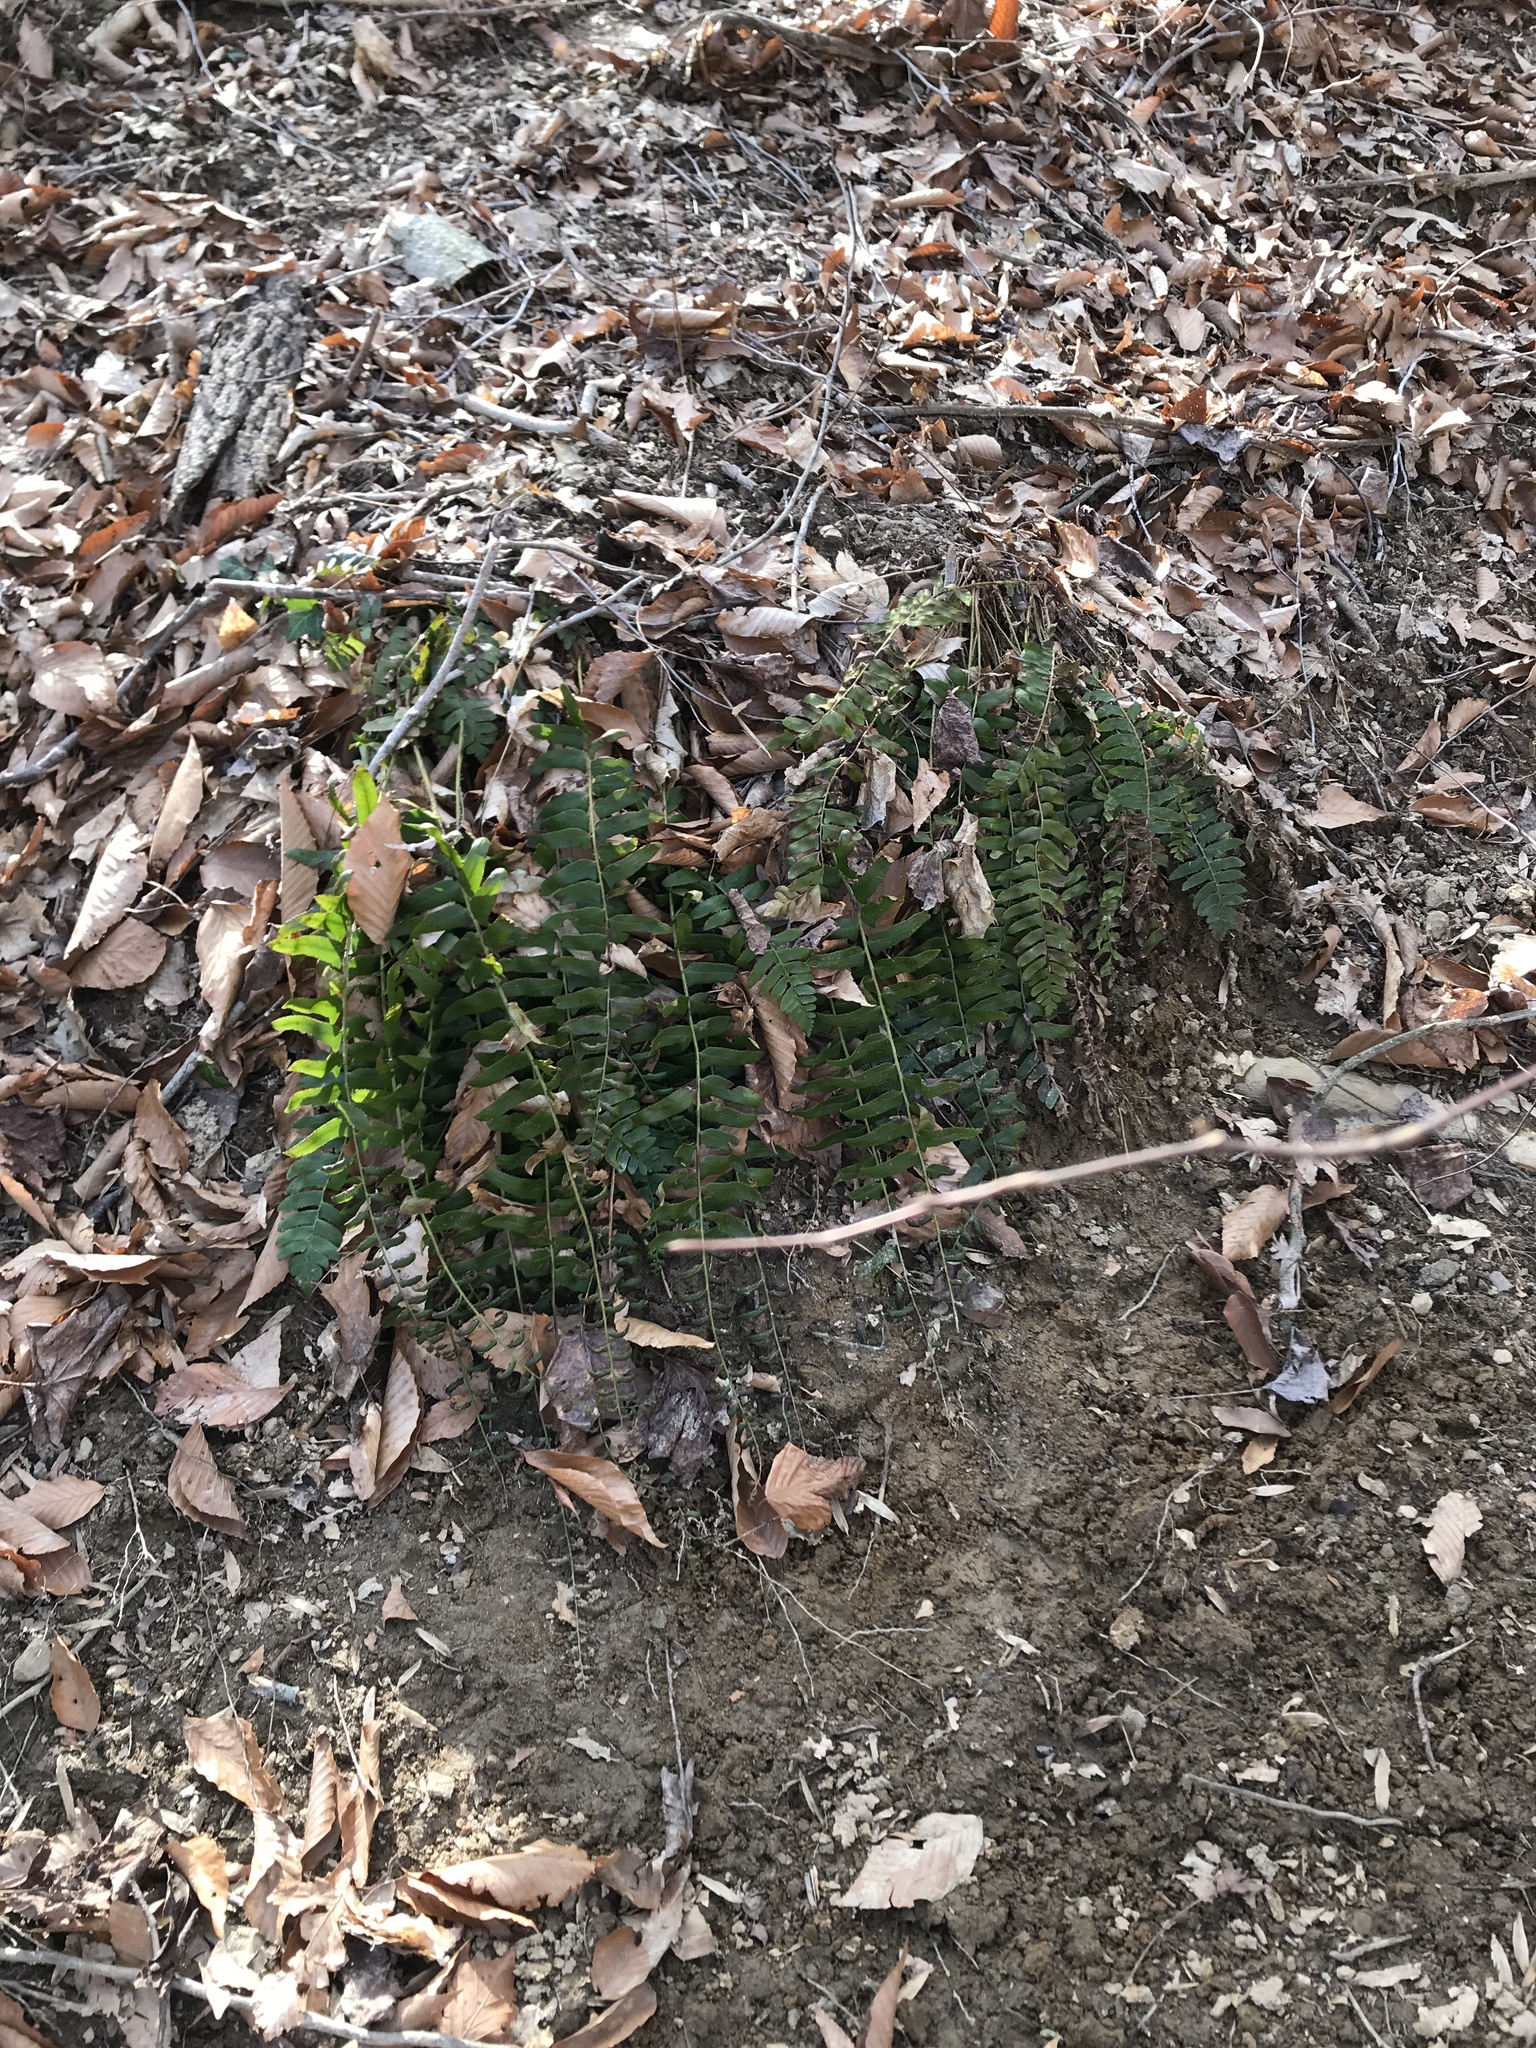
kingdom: Plantae
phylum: Tracheophyta
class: Polypodiopsida
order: Polypodiales
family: Dryopteridaceae
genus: Polystichum
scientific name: Polystichum acrostichoides
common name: Christmas fern
